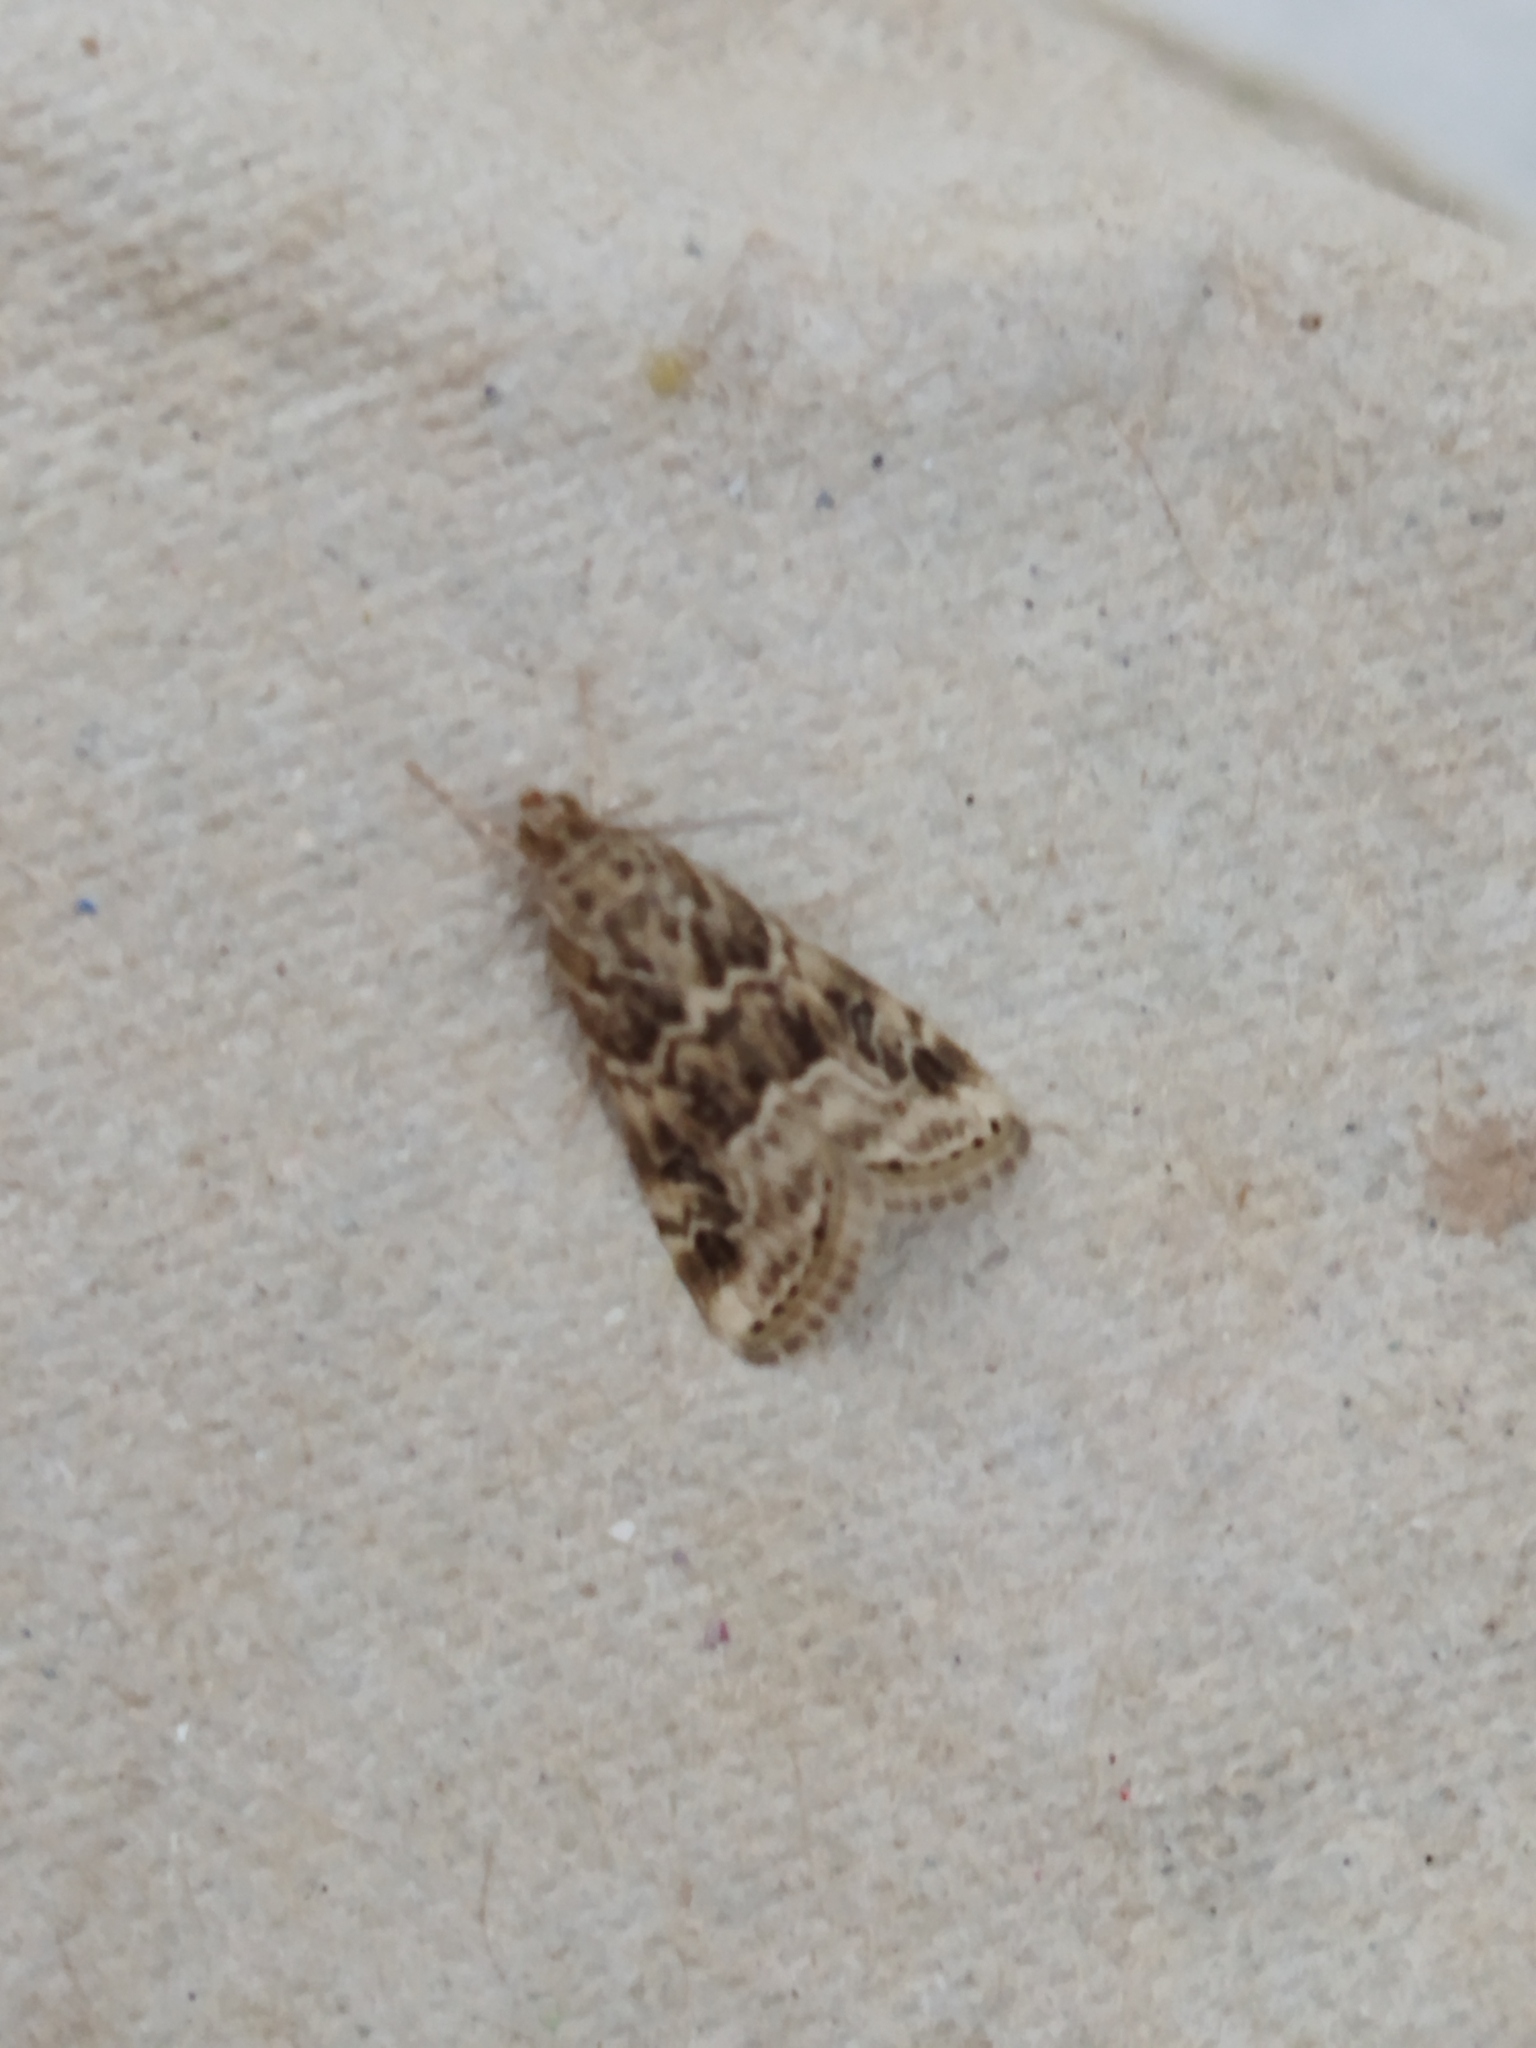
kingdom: Animalia
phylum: Arthropoda
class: Insecta
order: Lepidoptera
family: Crambidae
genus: Hellula
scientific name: Hellula undalis
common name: Cabbage webworm
